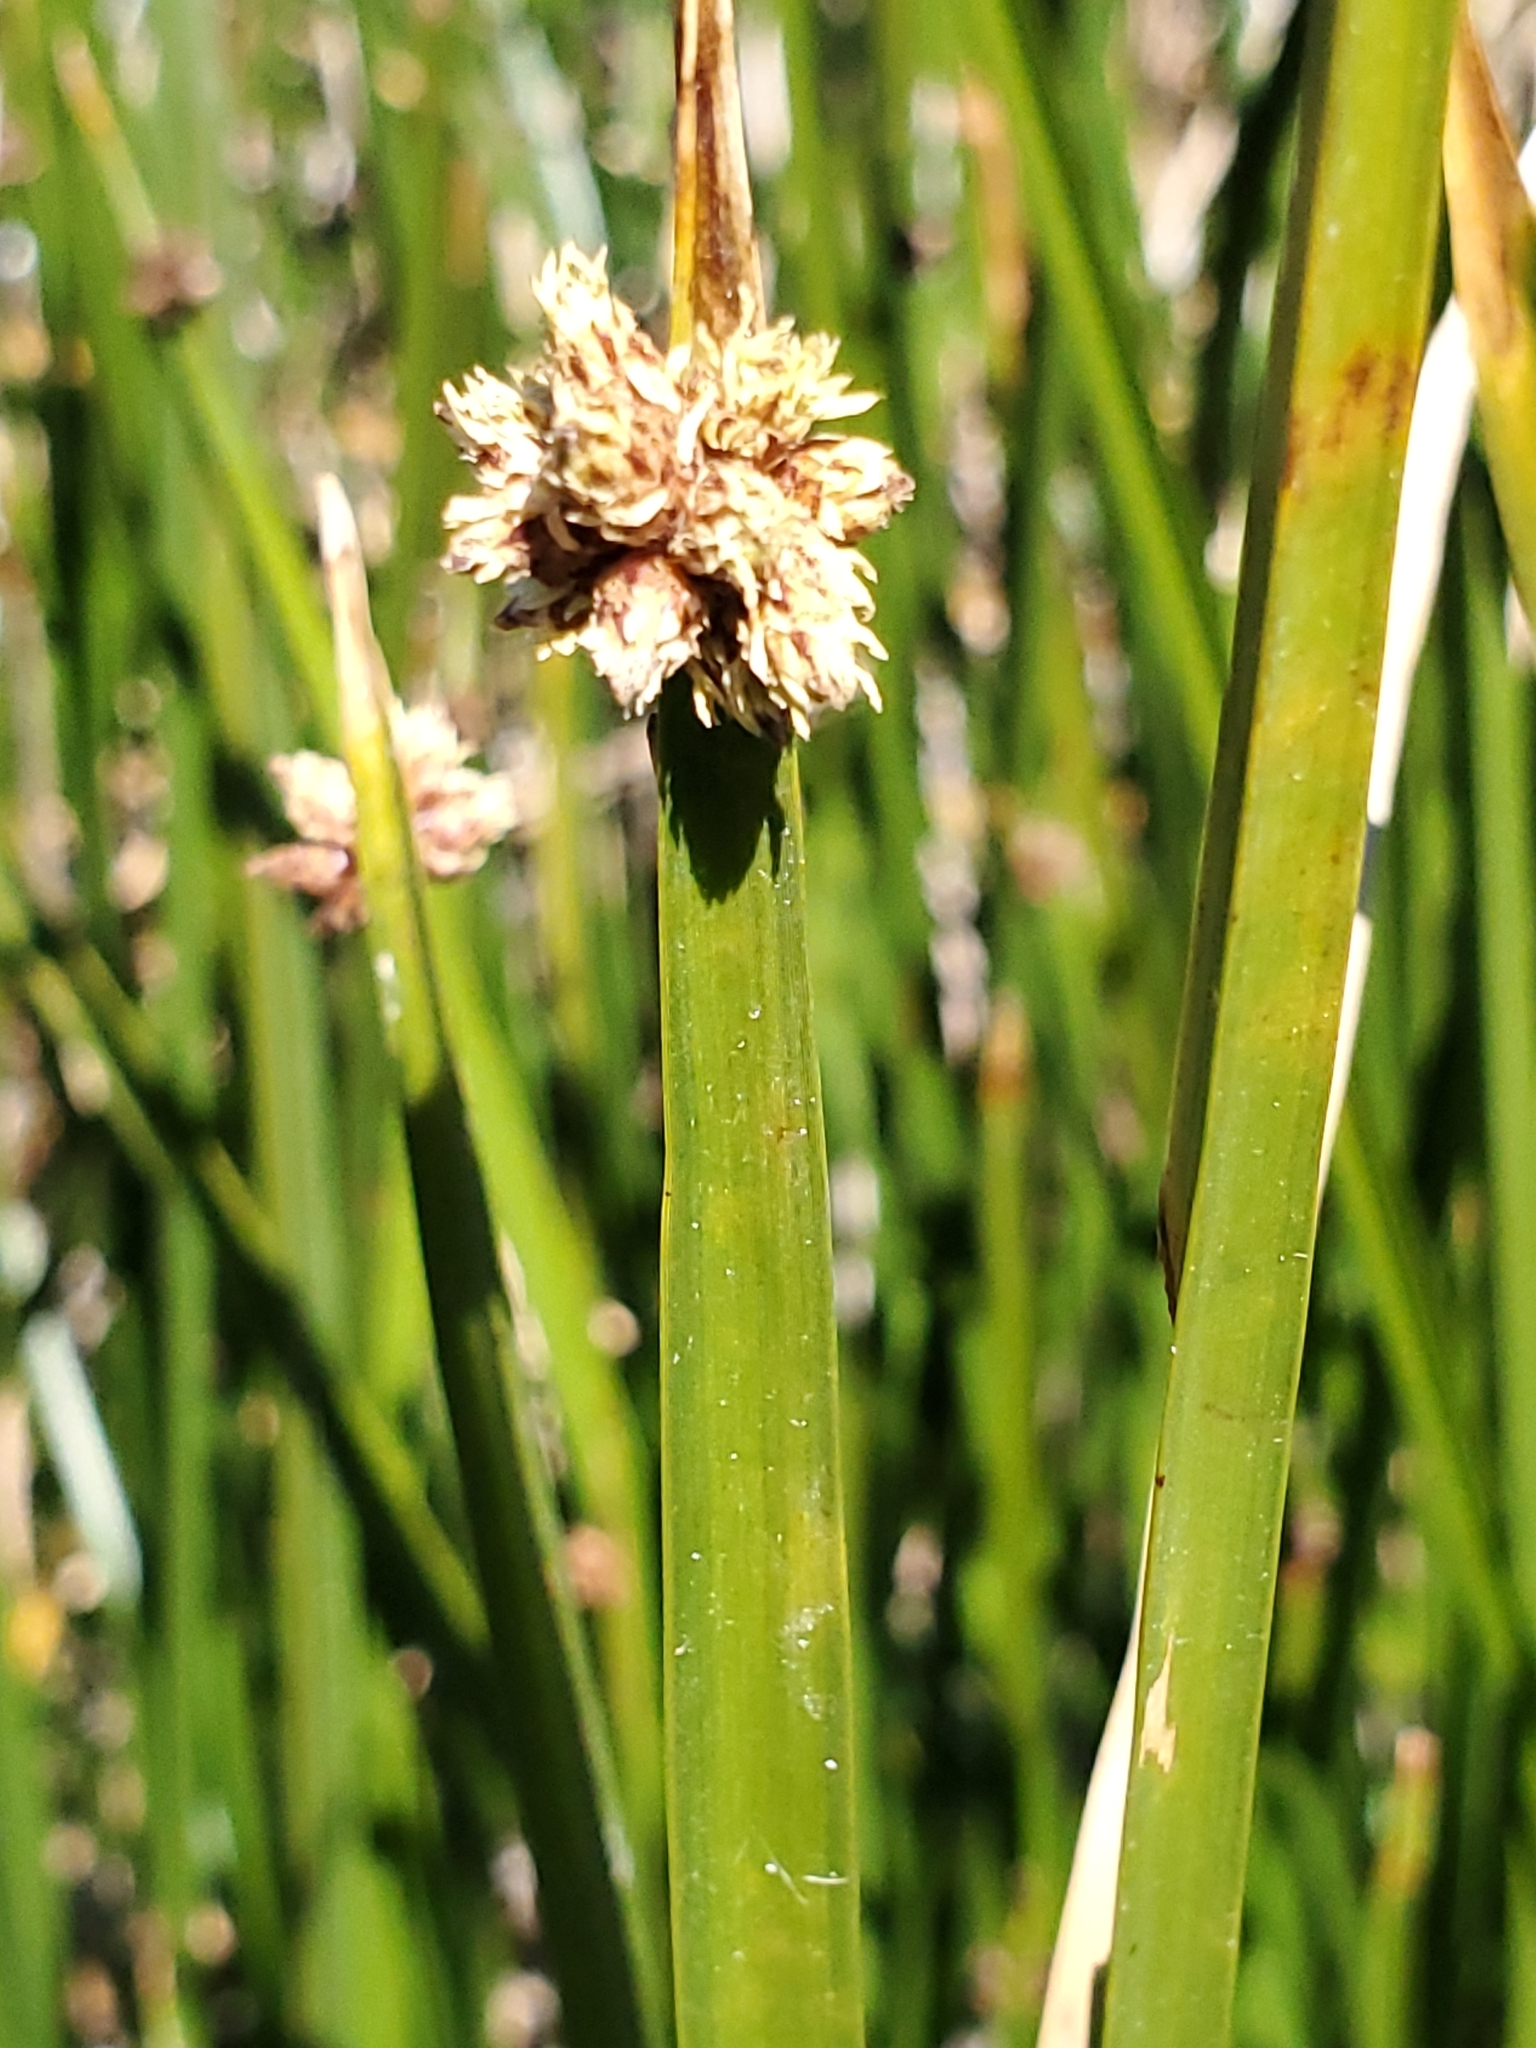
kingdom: Plantae
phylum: Tracheophyta
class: Liliopsida
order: Poales
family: Cyperaceae
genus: Schoenoplectus
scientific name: Schoenoplectus americanus
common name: American three-square bulrush
